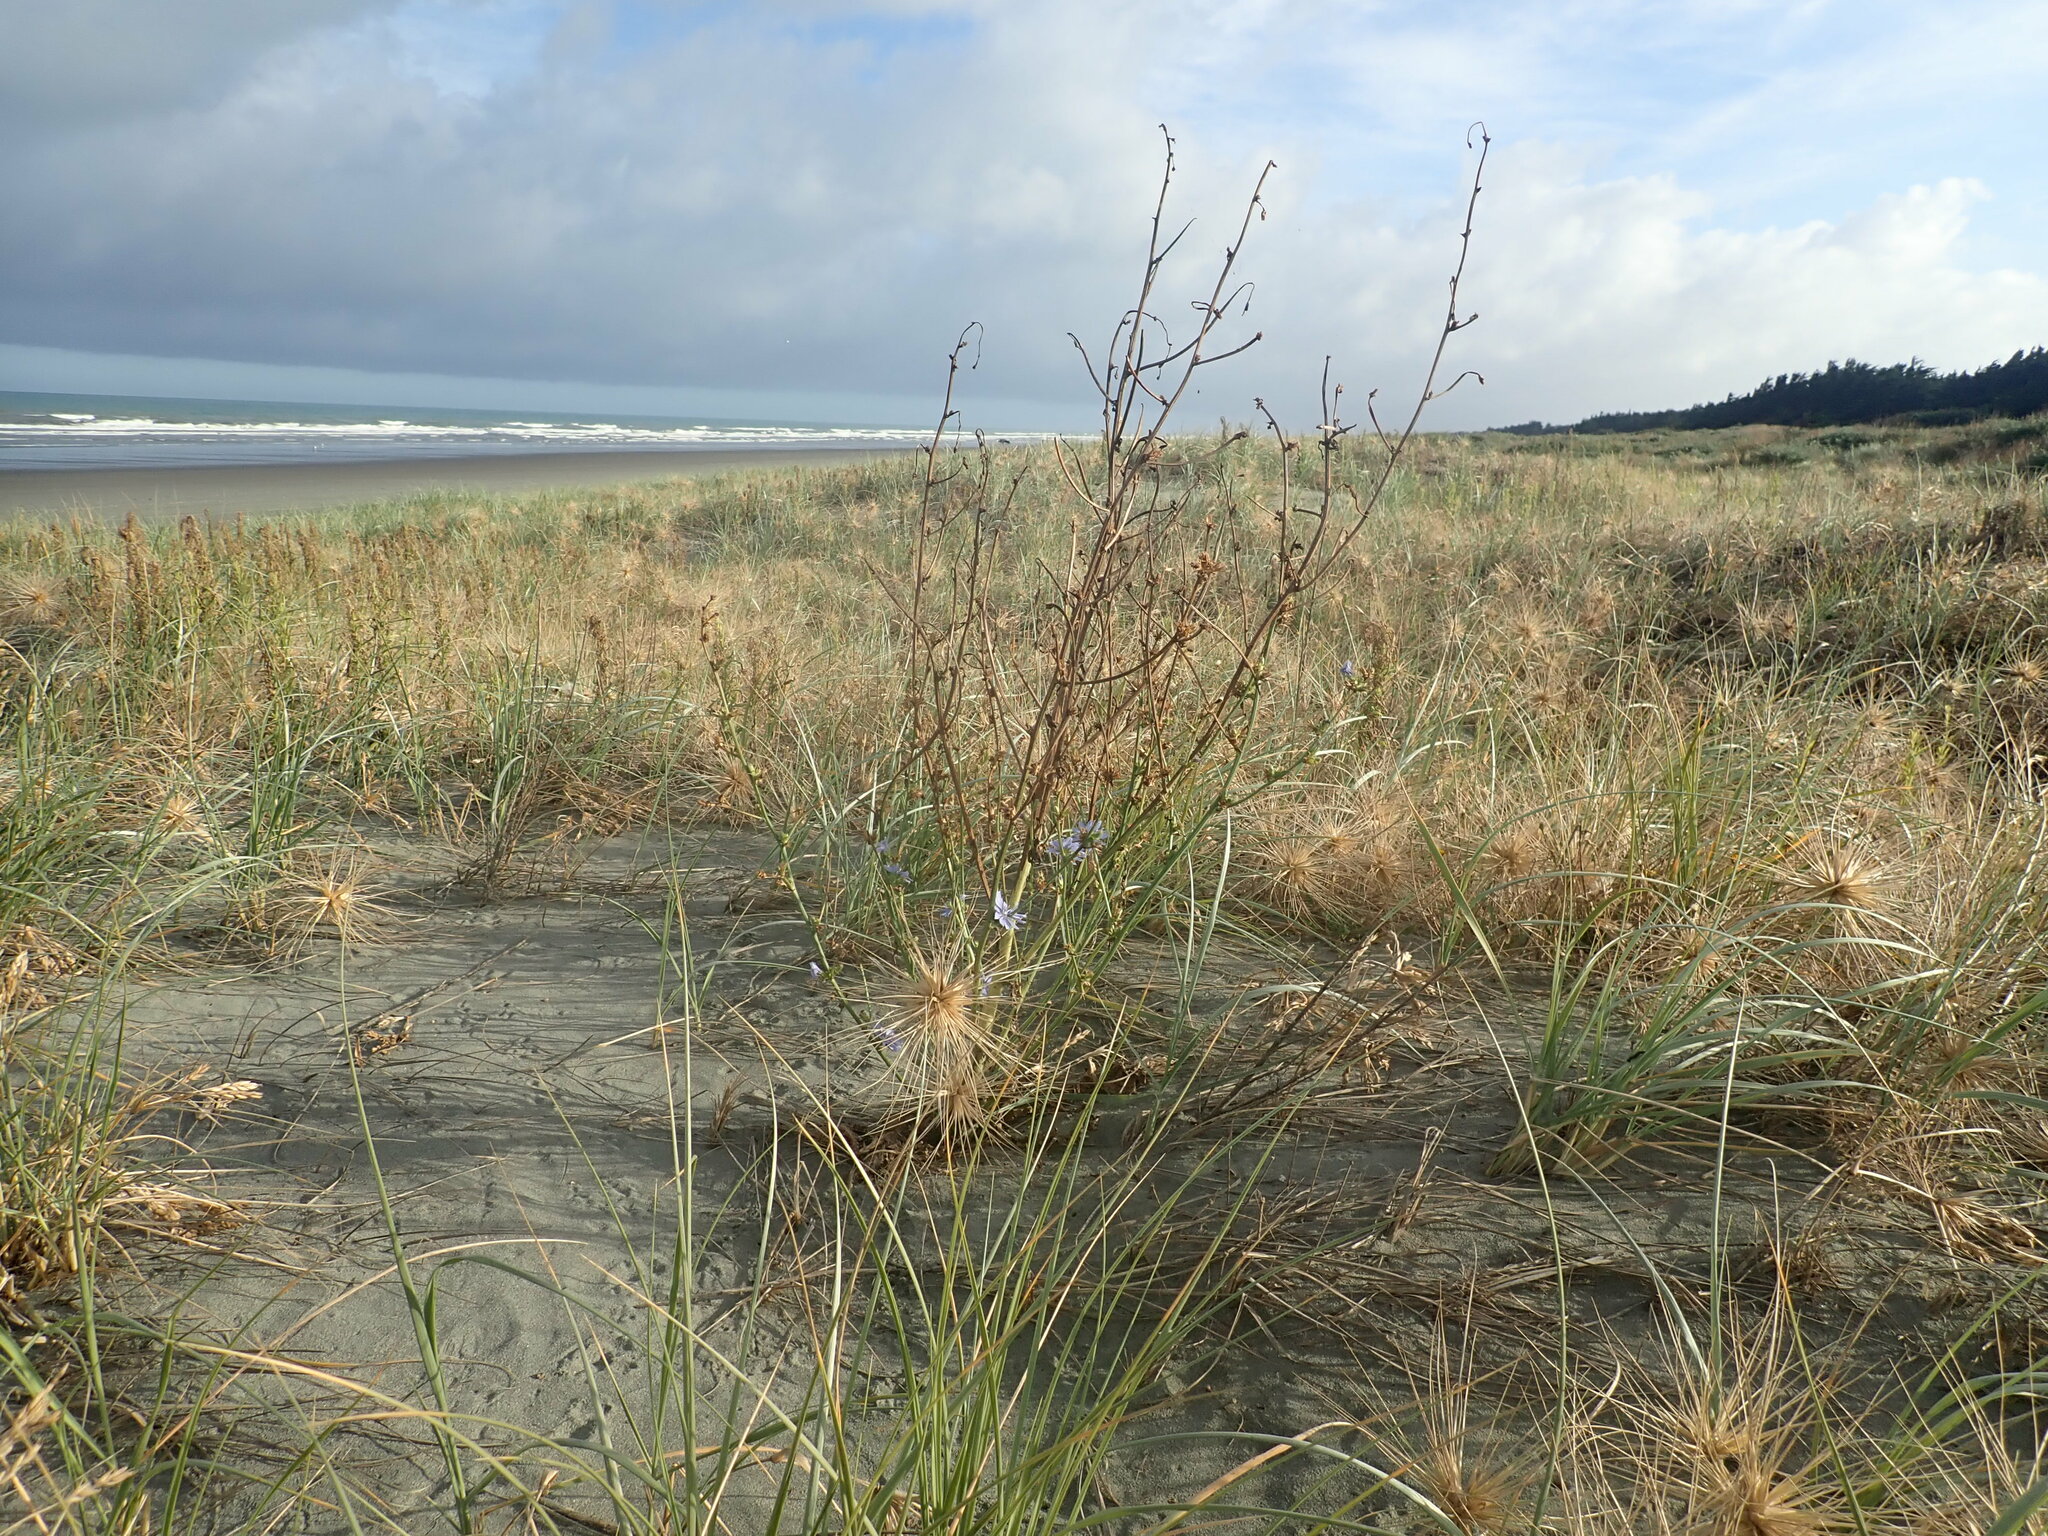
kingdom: Plantae
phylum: Tracheophyta
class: Magnoliopsida
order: Asterales
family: Asteraceae
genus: Cichorium
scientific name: Cichorium intybus
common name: Chicory
